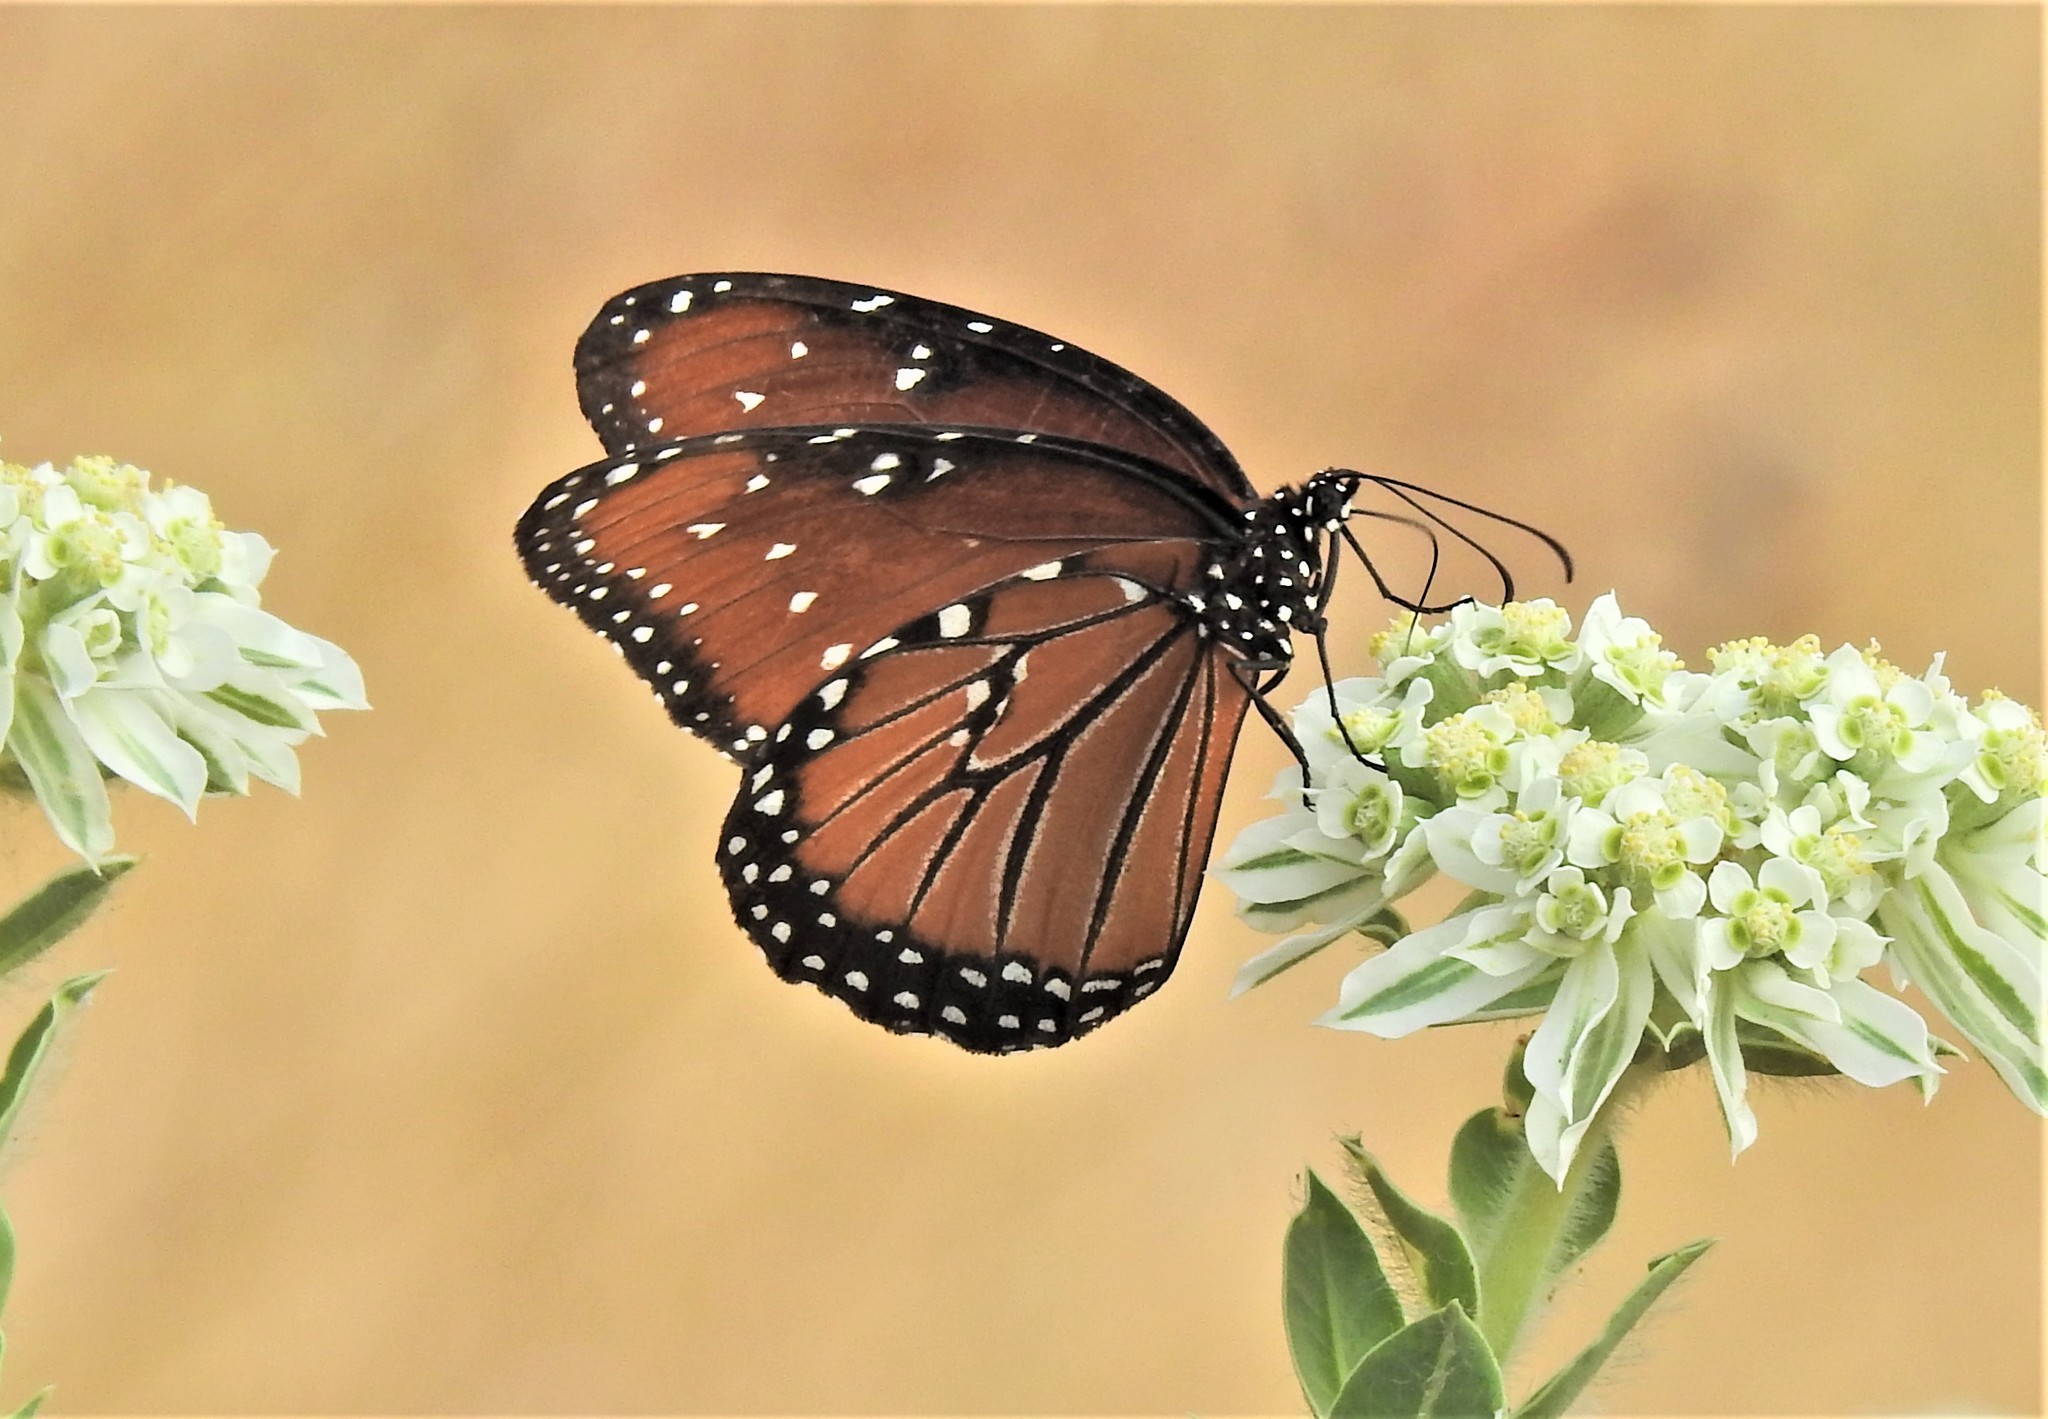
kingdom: Animalia
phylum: Arthropoda
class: Insecta
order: Lepidoptera
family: Nymphalidae
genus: Danaus
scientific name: Danaus gilippus
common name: Queen
